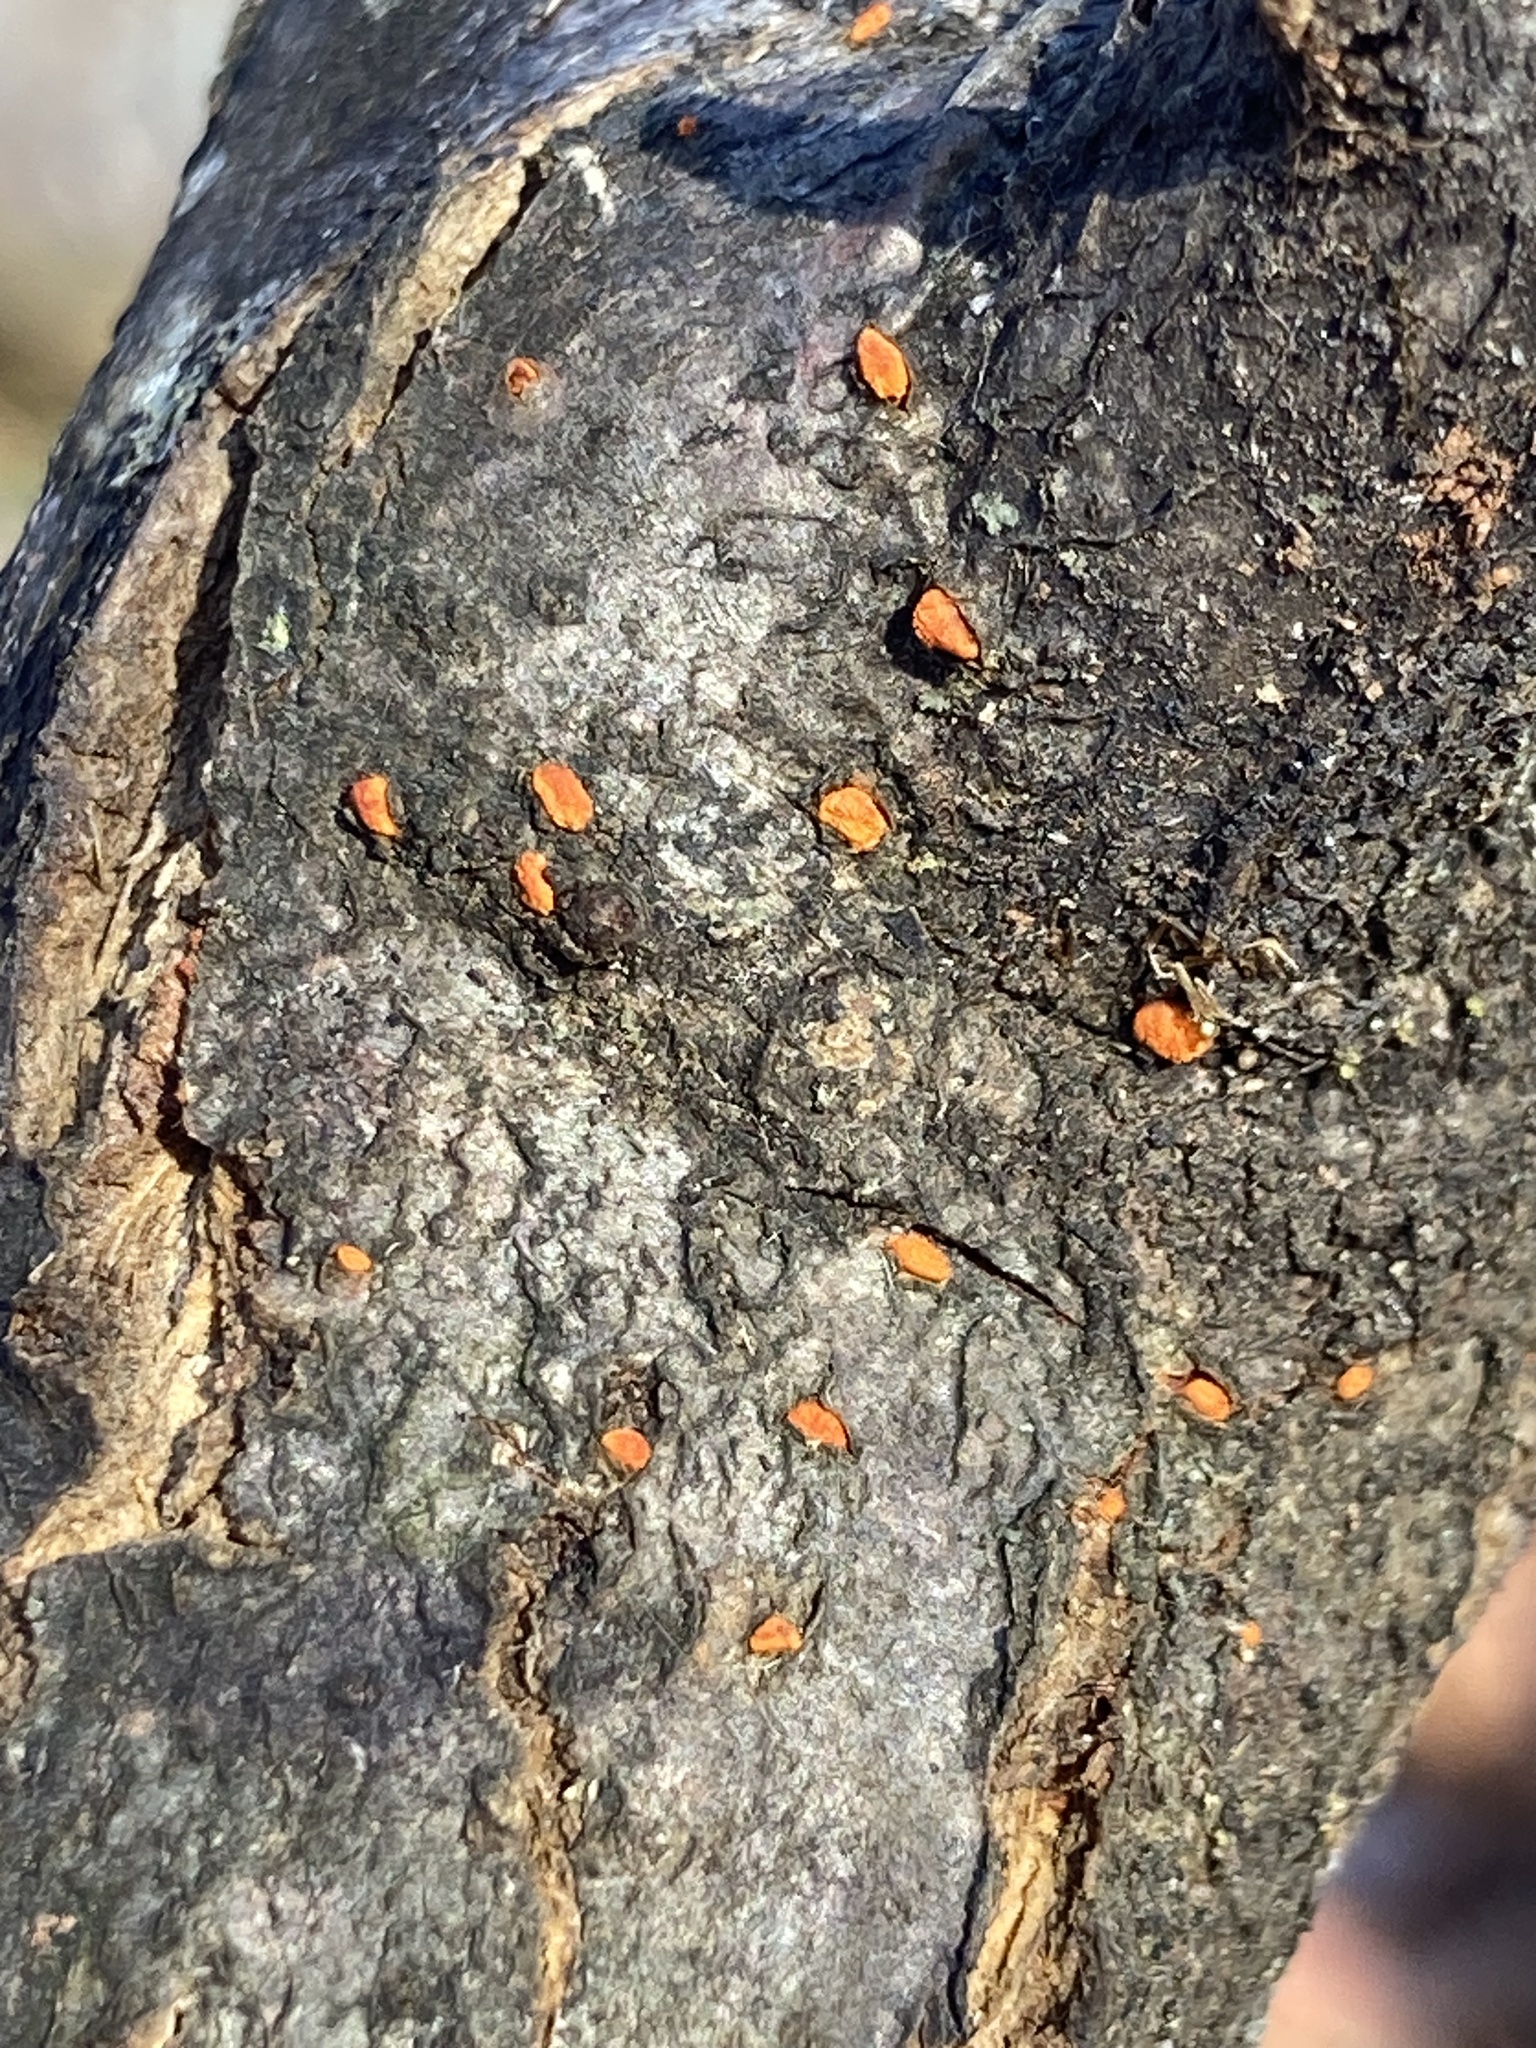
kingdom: Fungi
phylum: Ascomycota
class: Sordariomycetes
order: Diaporthales
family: Cryphonectriaceae
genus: Cryphonectria
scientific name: Cryphonectria parasitica
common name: Chestnut blight
